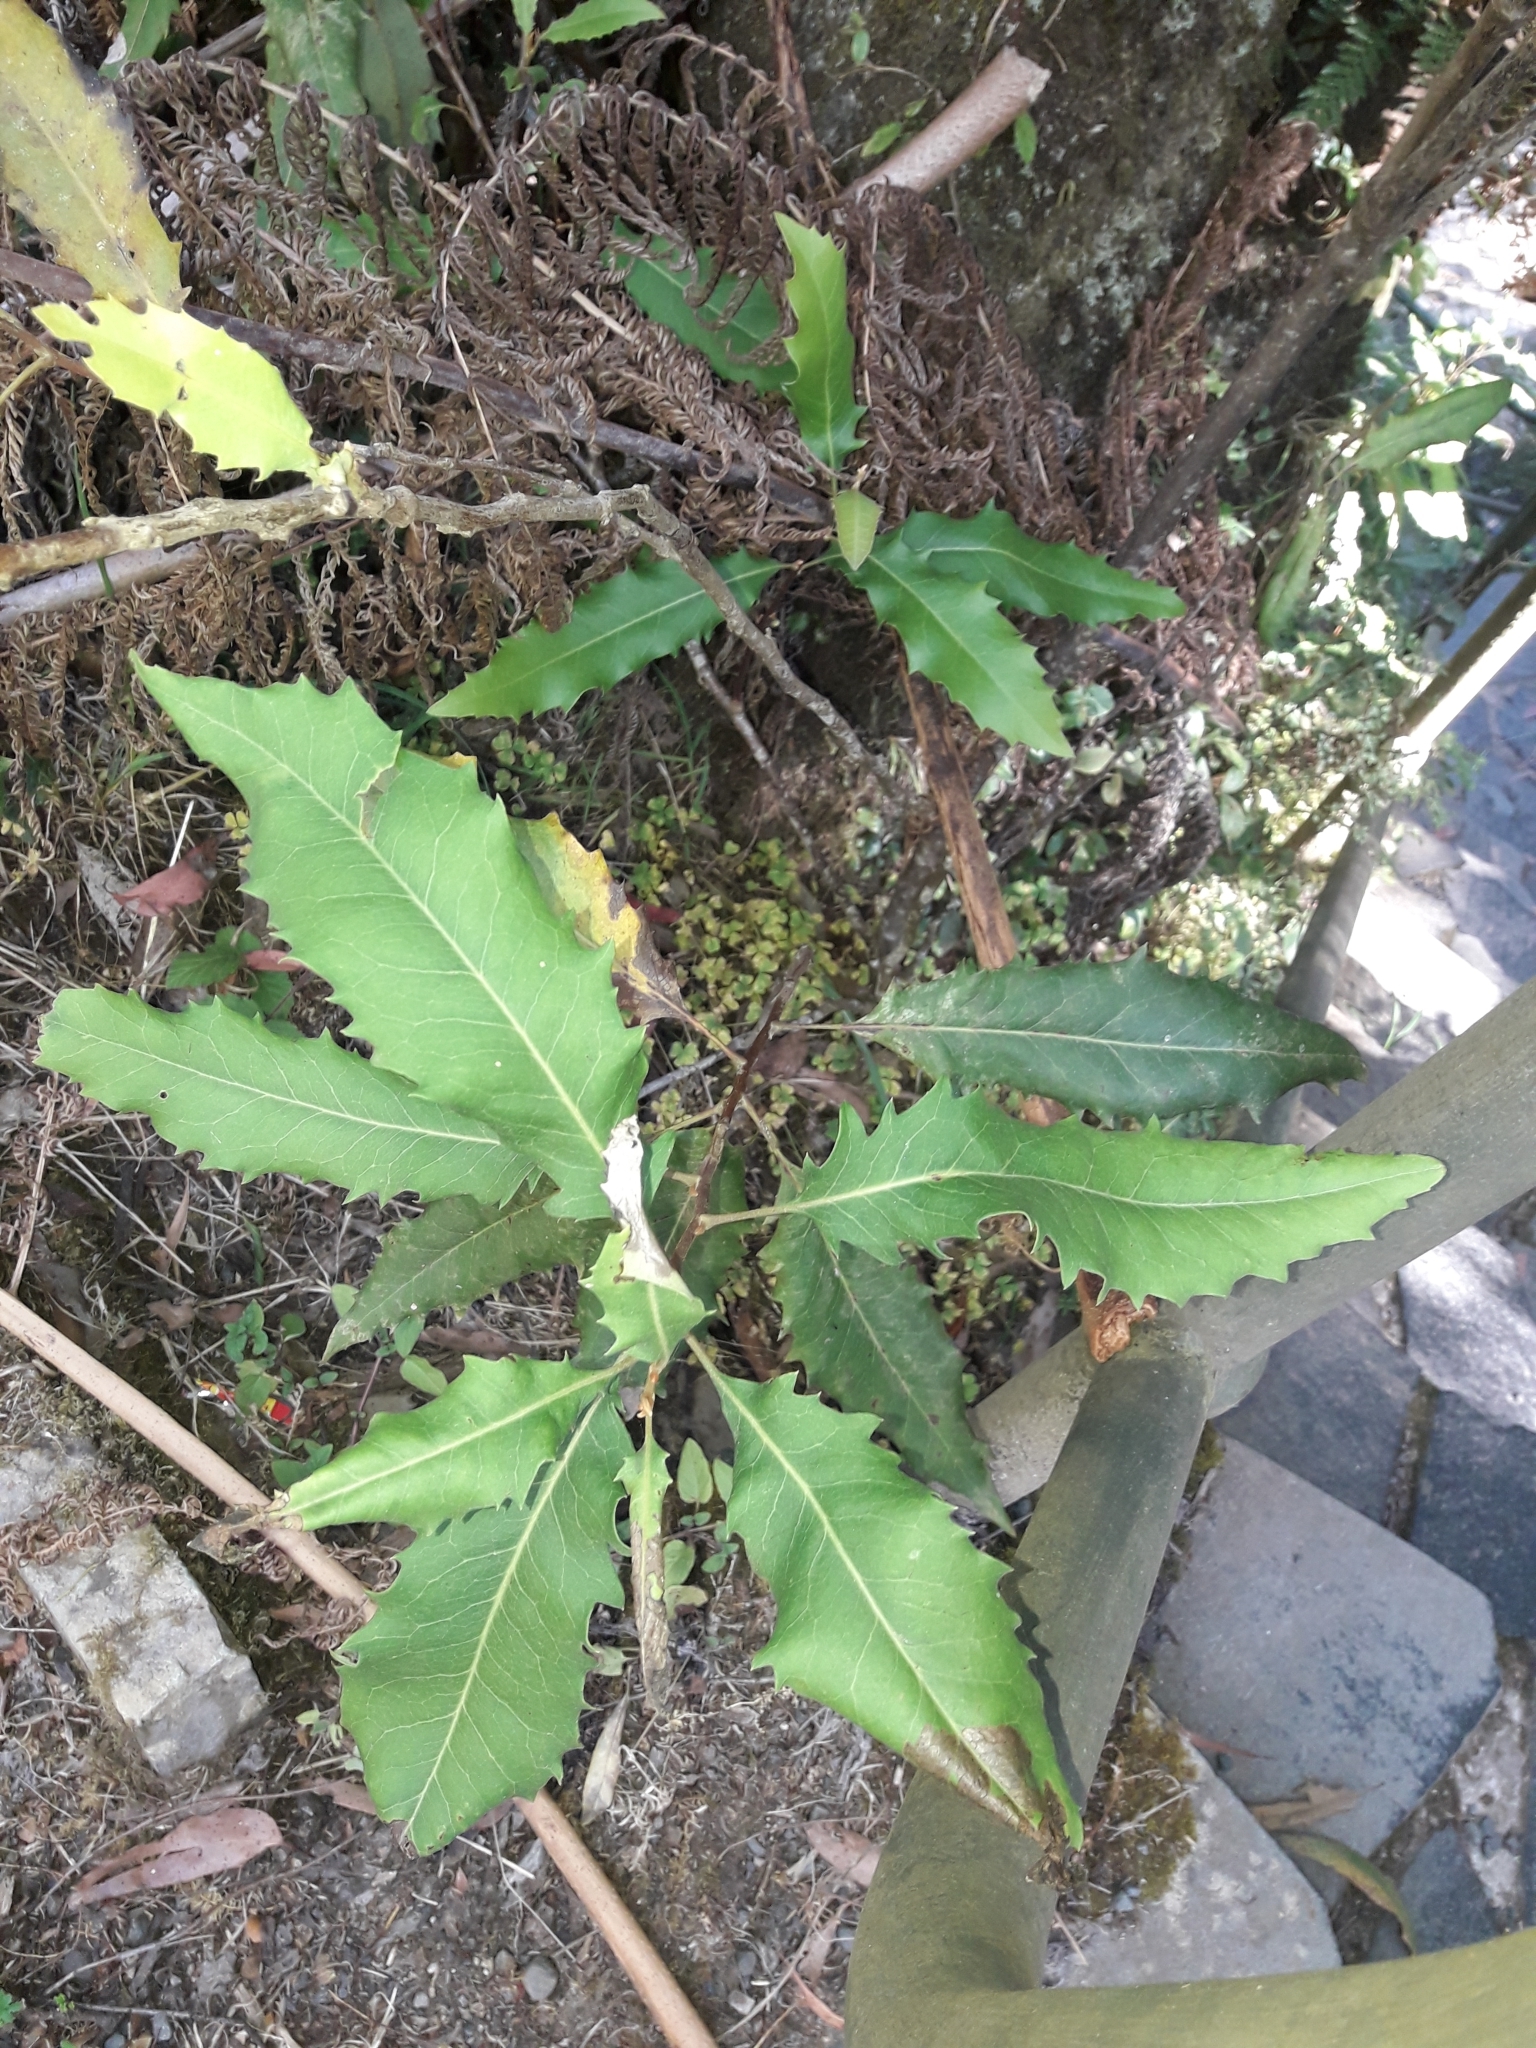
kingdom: Plantae
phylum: Tracheophyta
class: Magnoliopsida
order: Proteales
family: Proteaceae
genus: Lomatia
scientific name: Lomatia fraseri
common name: Forest lomatia
